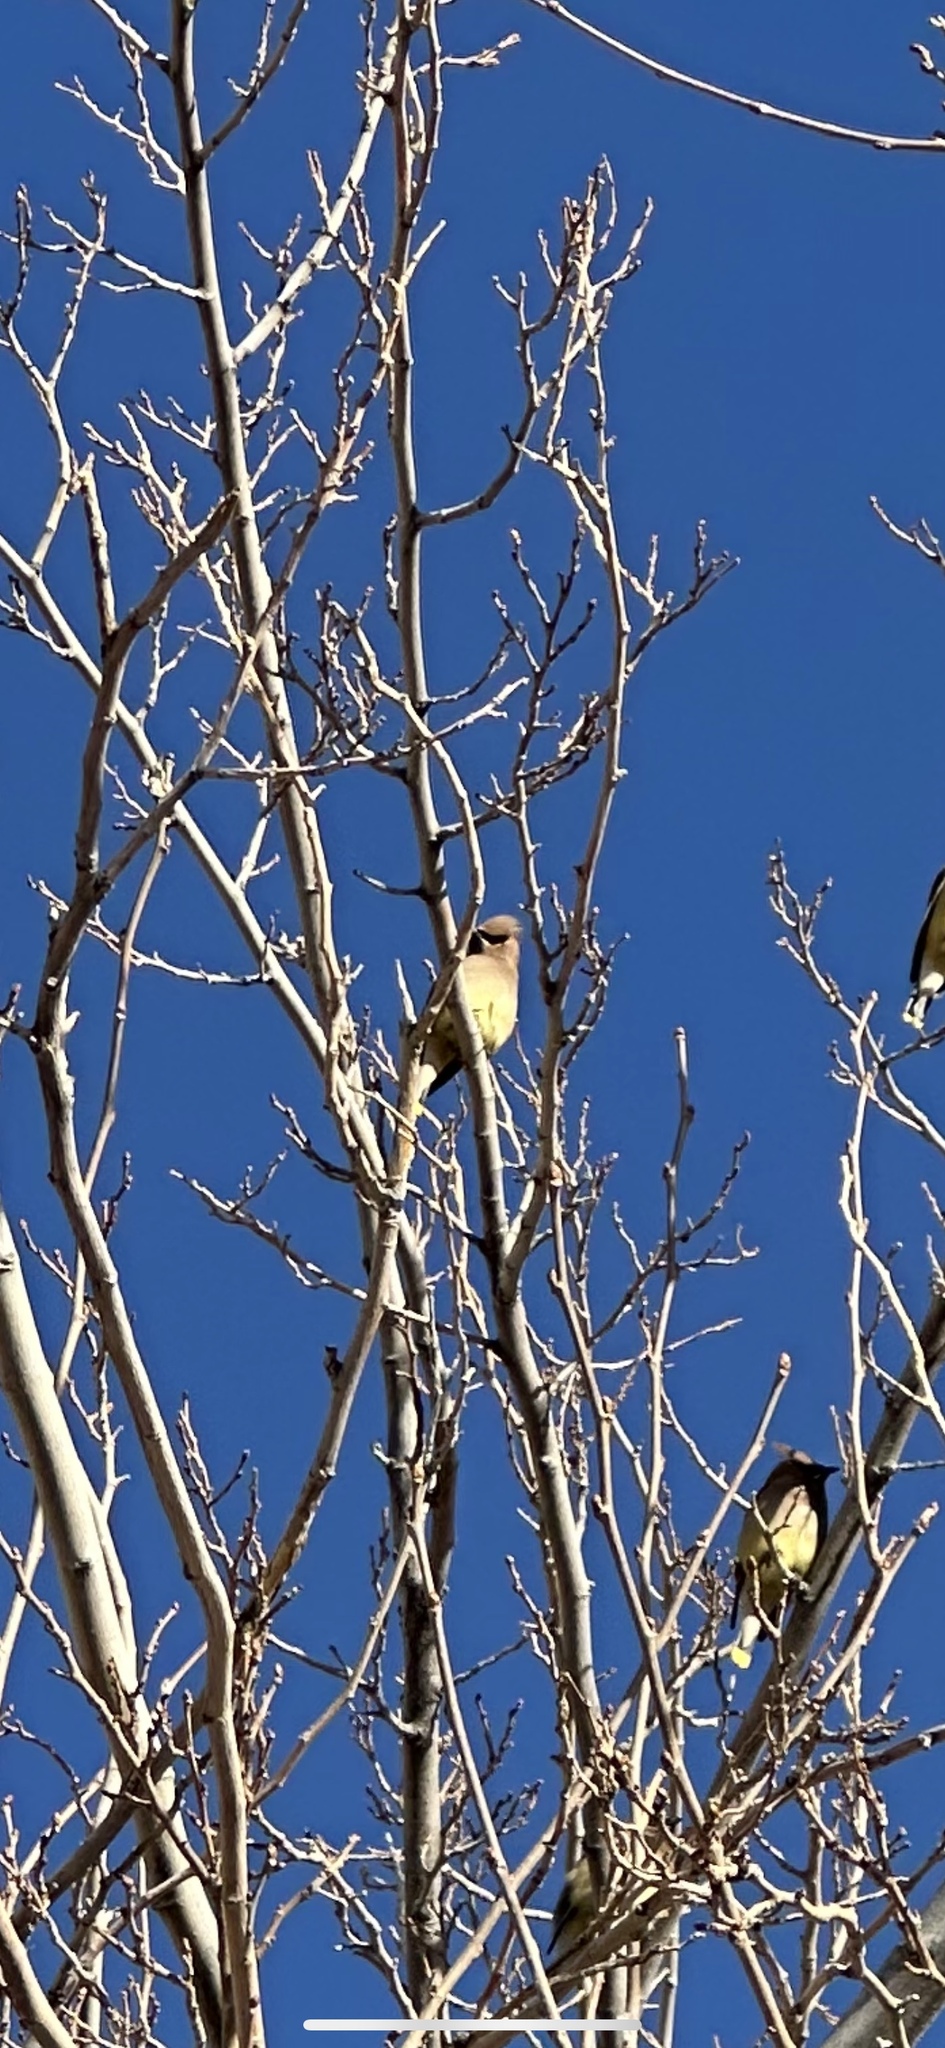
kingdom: Animalia
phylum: Chordata
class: Aves
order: Passeriformes
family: Bombycillidae
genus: Bombycilla
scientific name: Bombycilla cedrorum
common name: Cedar waxwing
